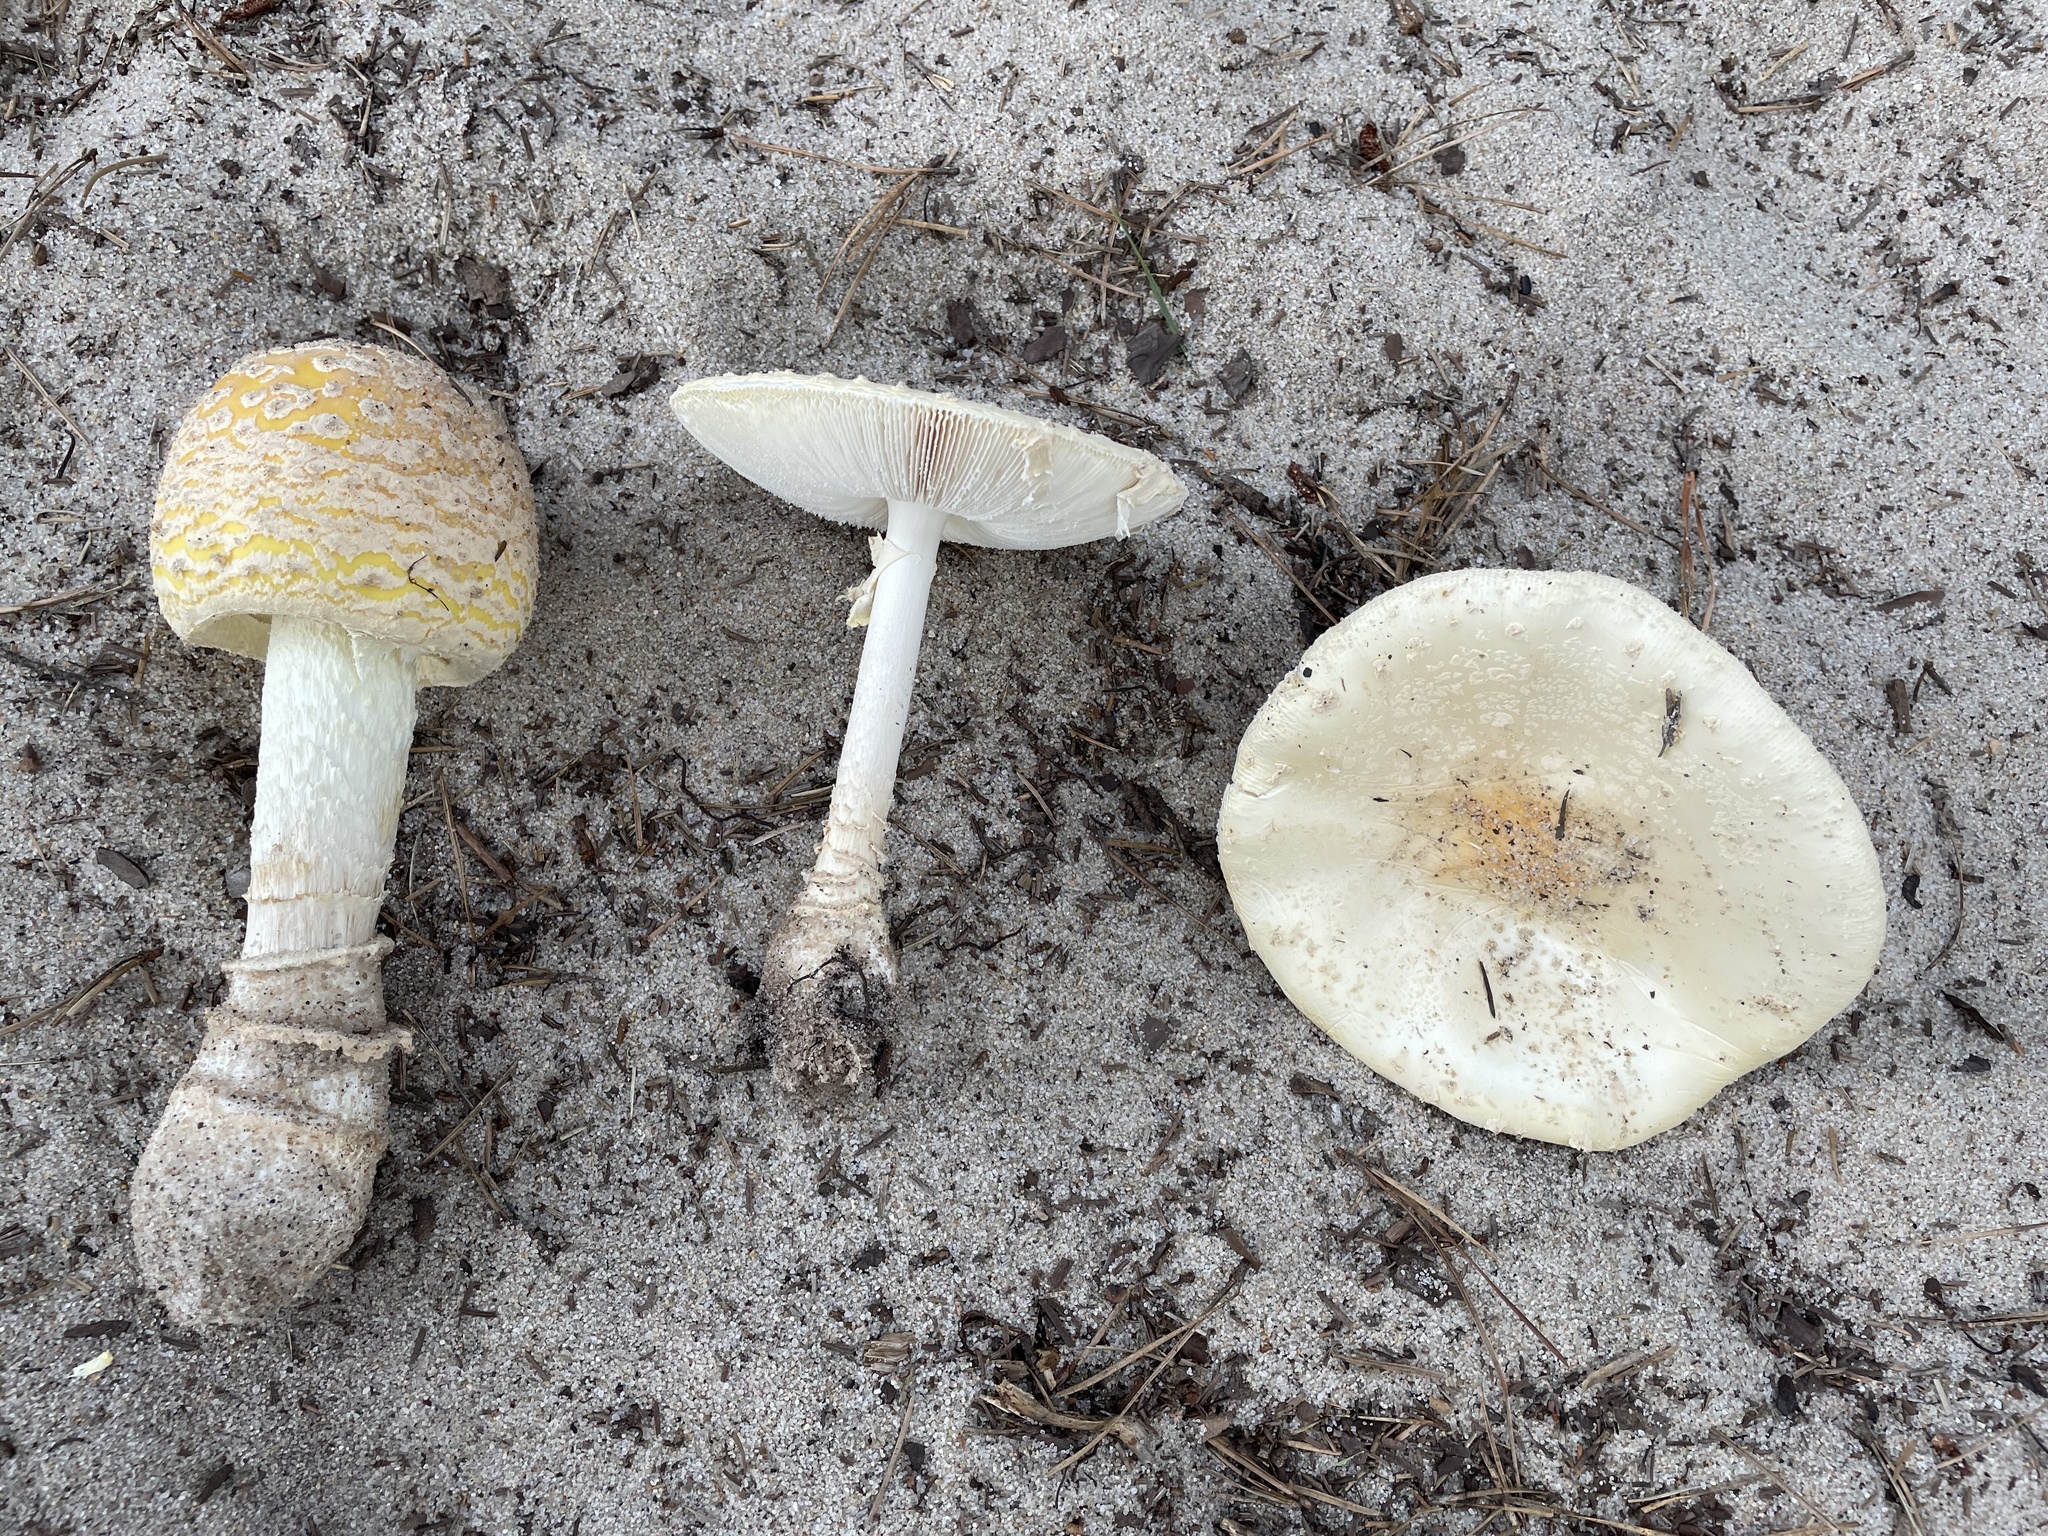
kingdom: Fungi
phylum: Basidiomycota
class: Agaricomycetes
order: Agaricales
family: Amanitaceae
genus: Amanita
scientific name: Amanita muscaria
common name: Fly agaric
